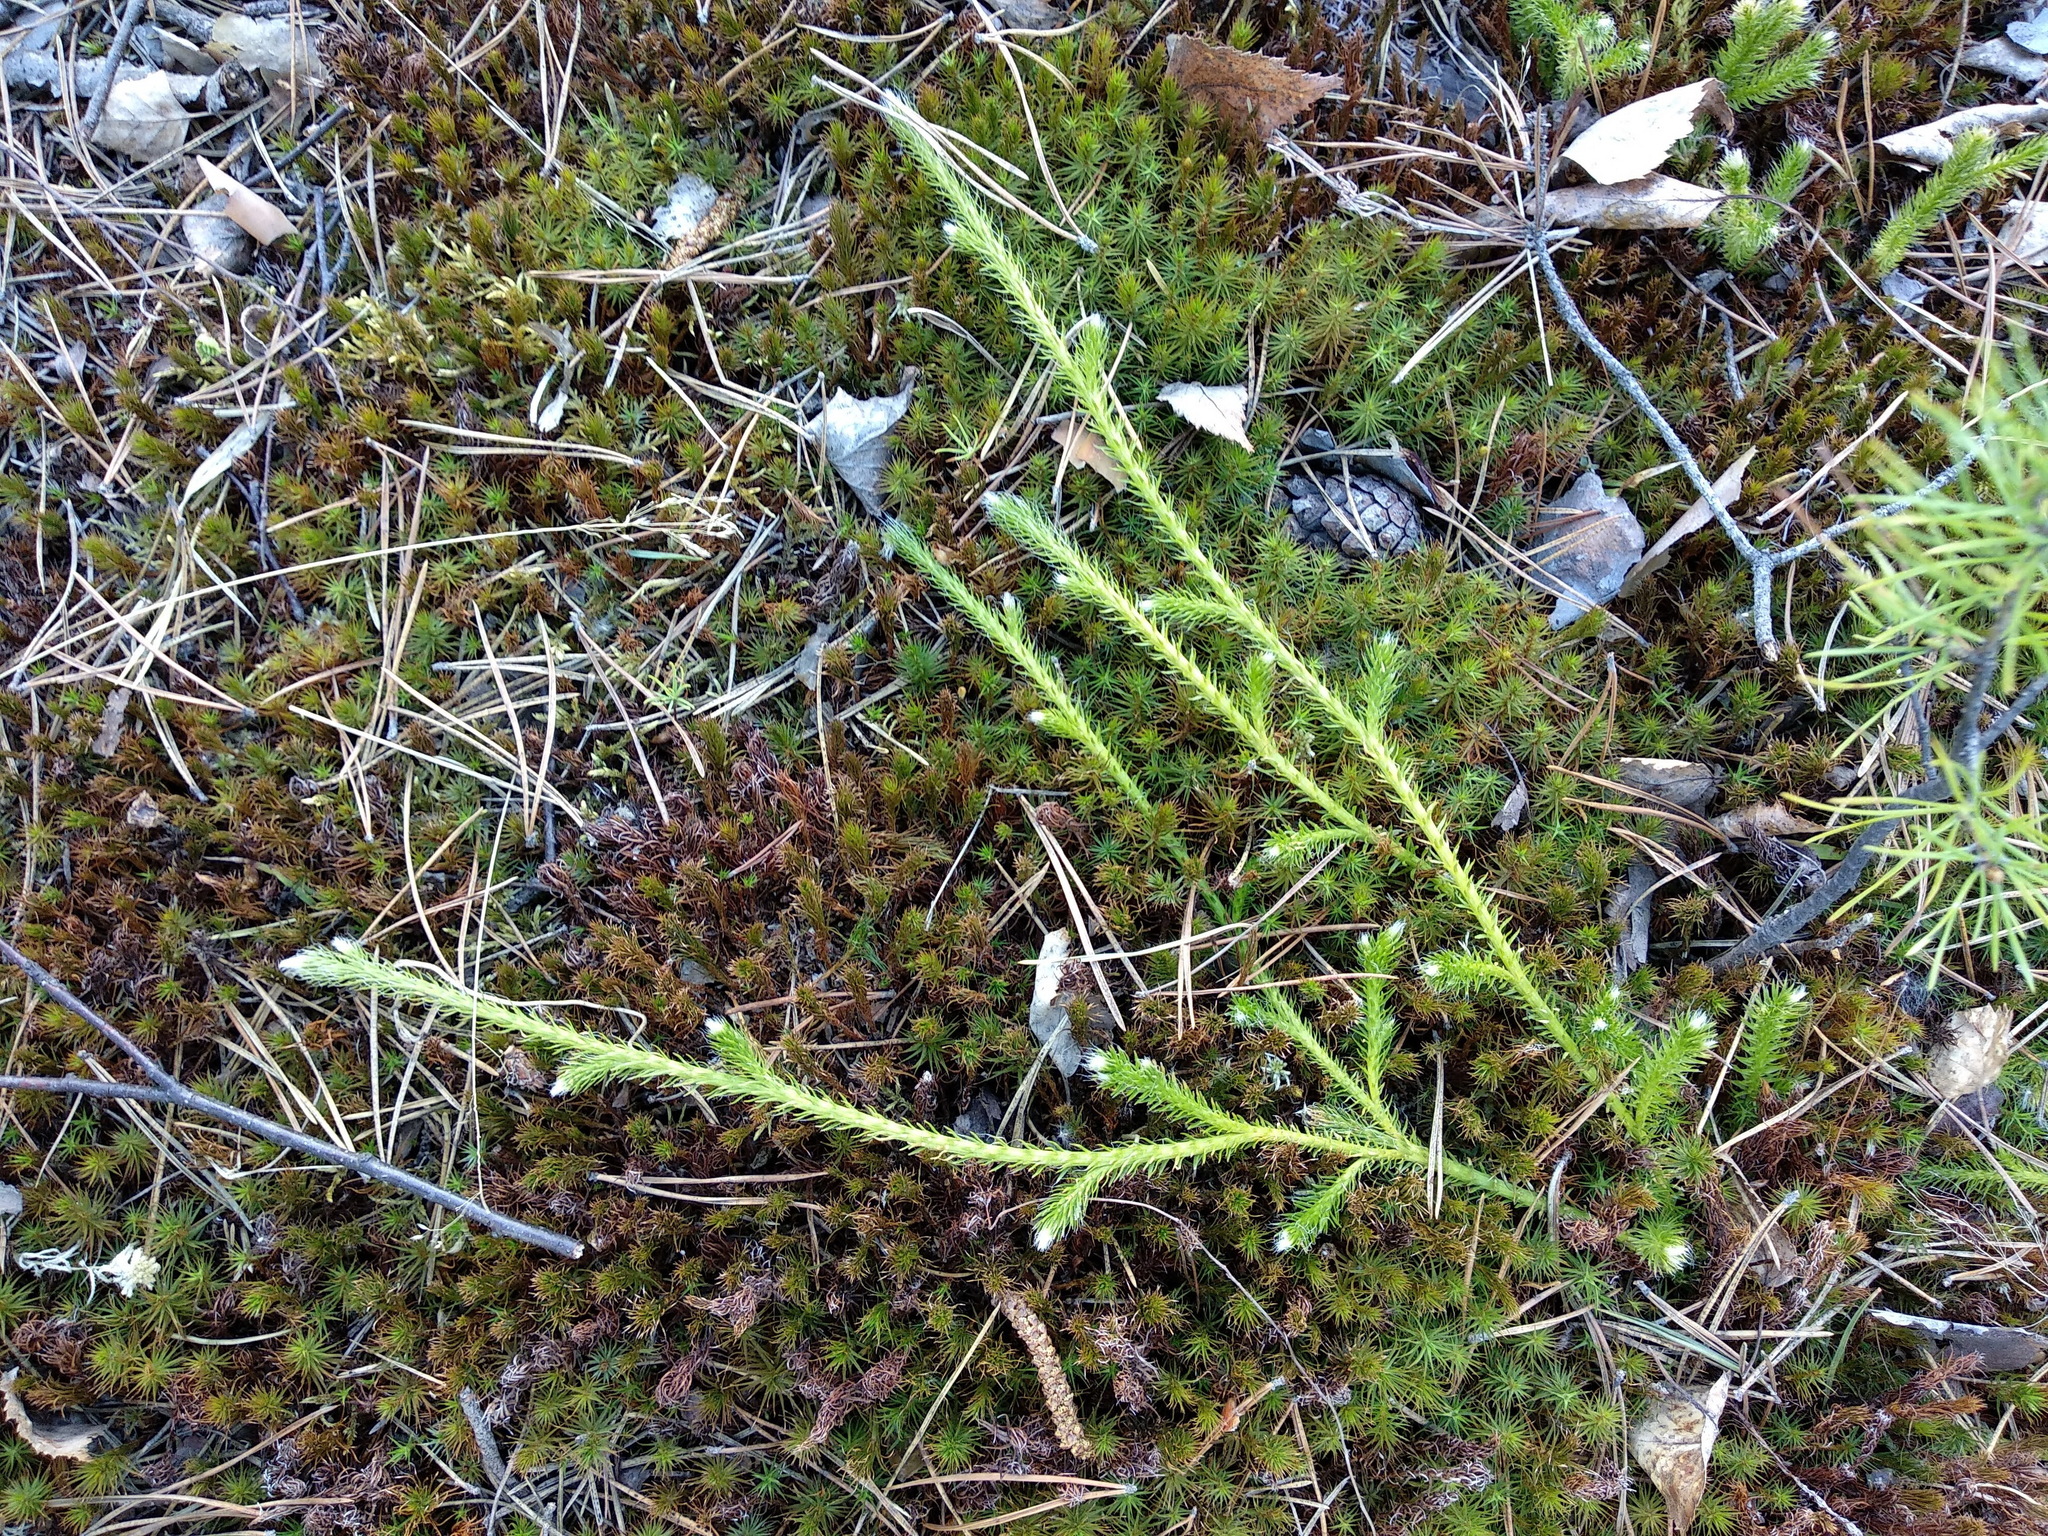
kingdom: Plantae
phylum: Tracheophyta
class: Lycopodiopsida
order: Lycopodiales
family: Lycopodiaceae
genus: Lycopodium
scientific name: Lycopodium clavatum
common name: Stag's-horn clubmoss
